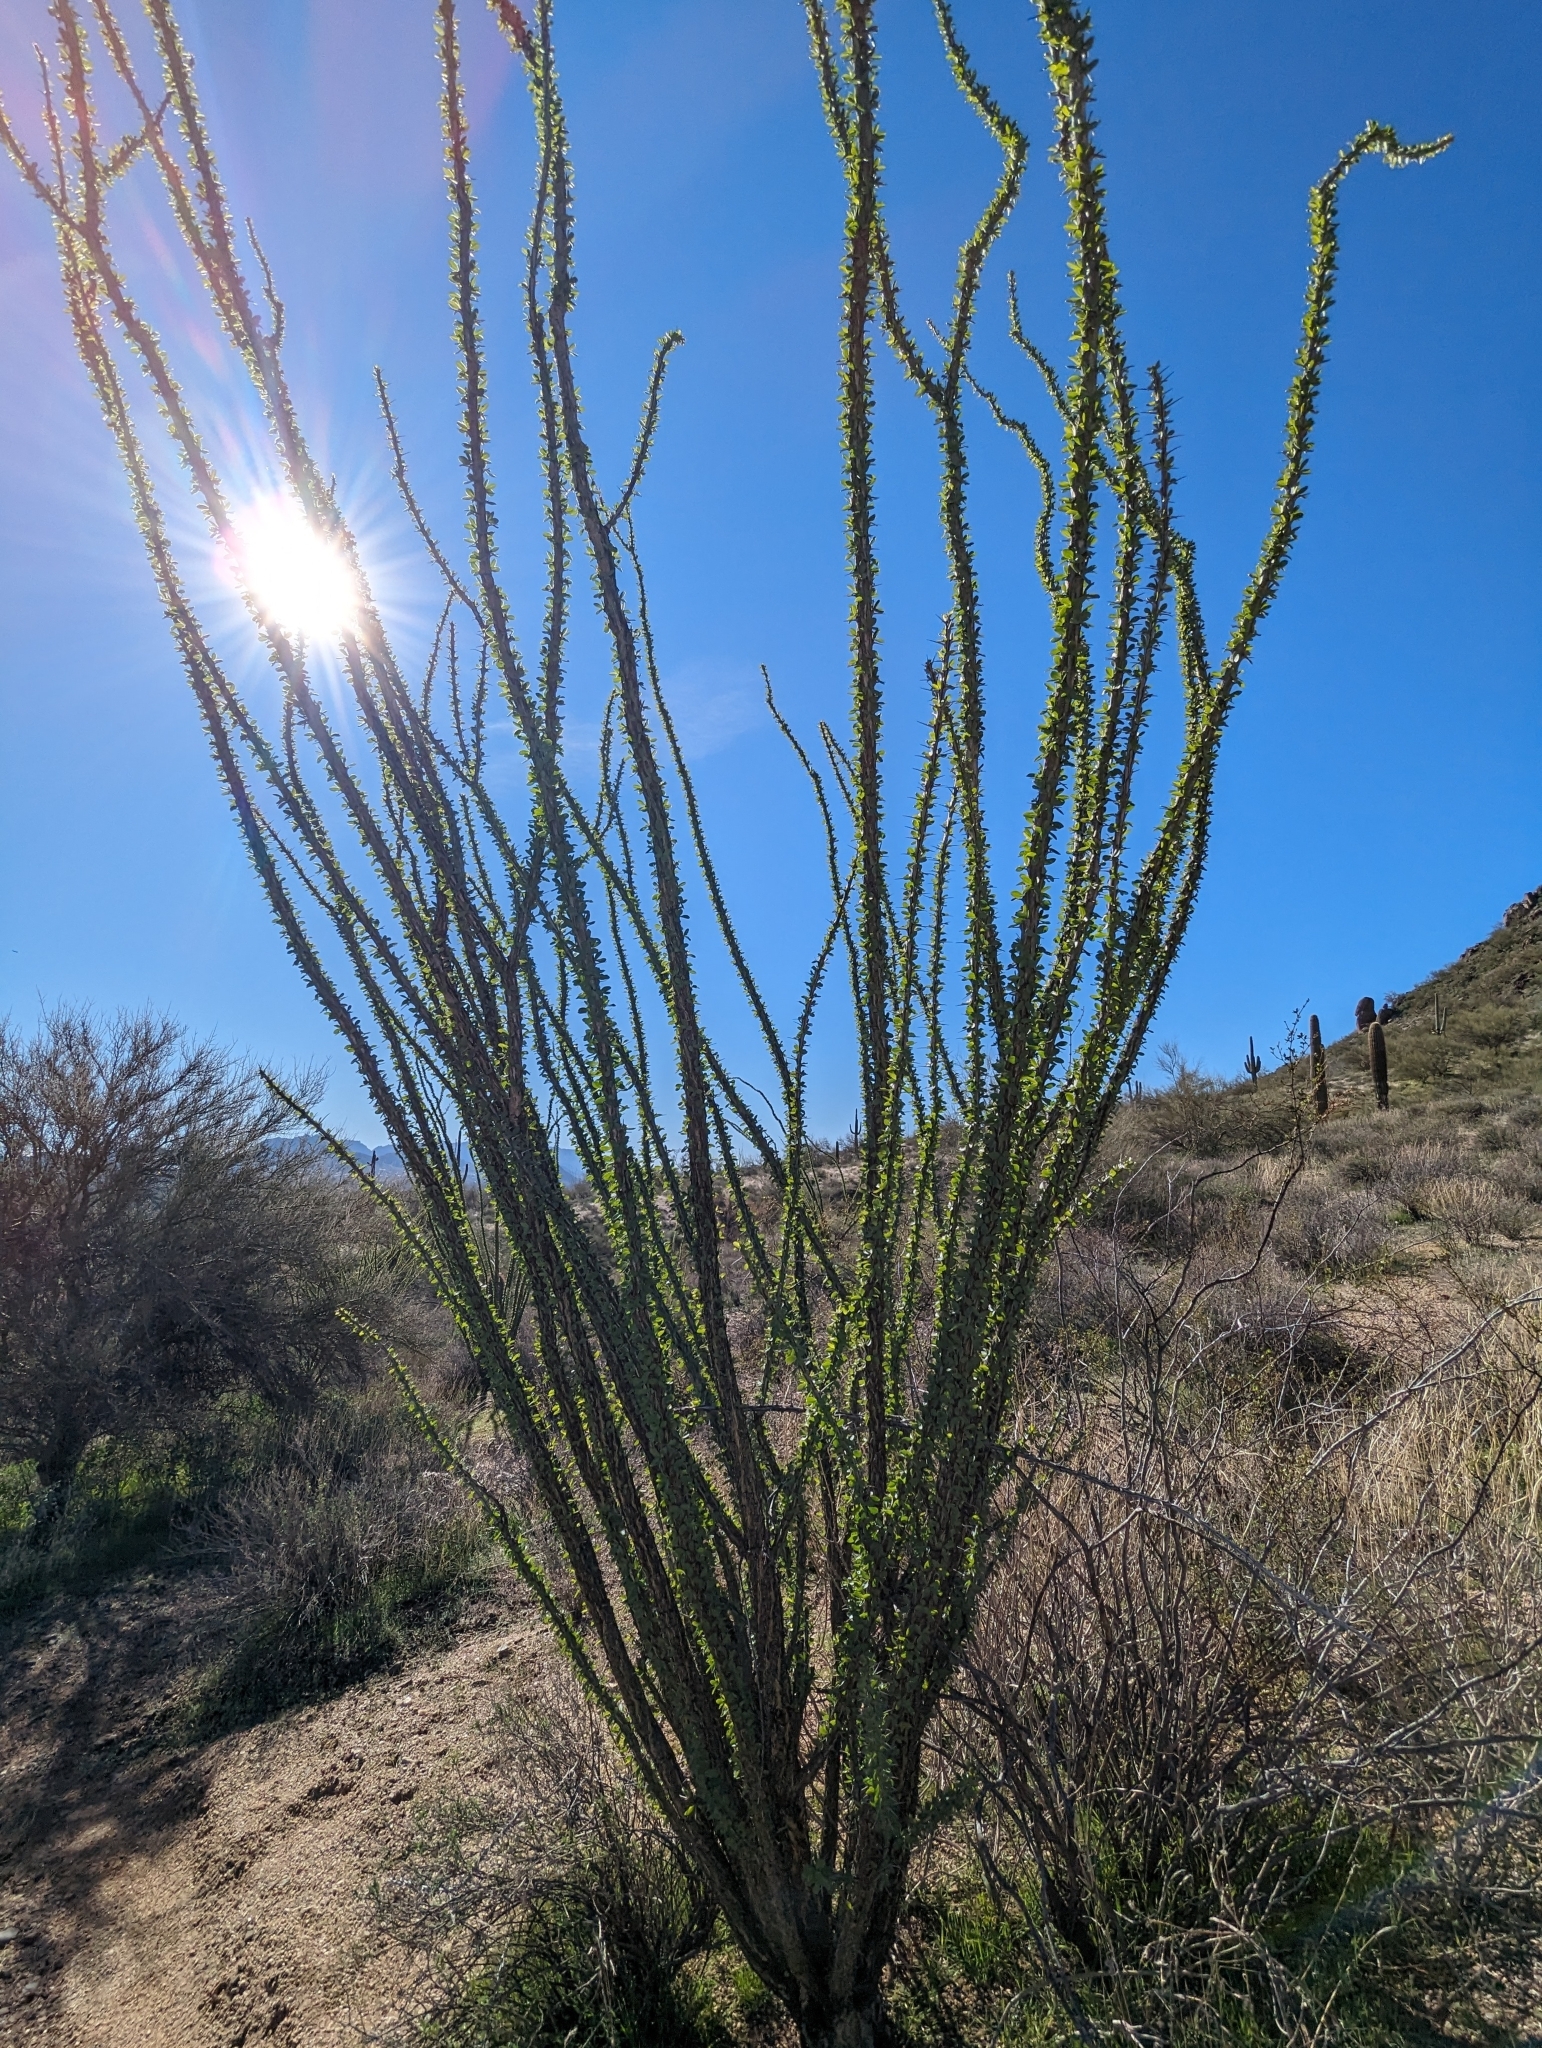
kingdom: Plantae
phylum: Tracheophyta
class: Magnoliopsida
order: Ericales
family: Fouquieriaceae
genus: Fouquieria
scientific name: Fouquieria splendens
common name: Vine-cactus
